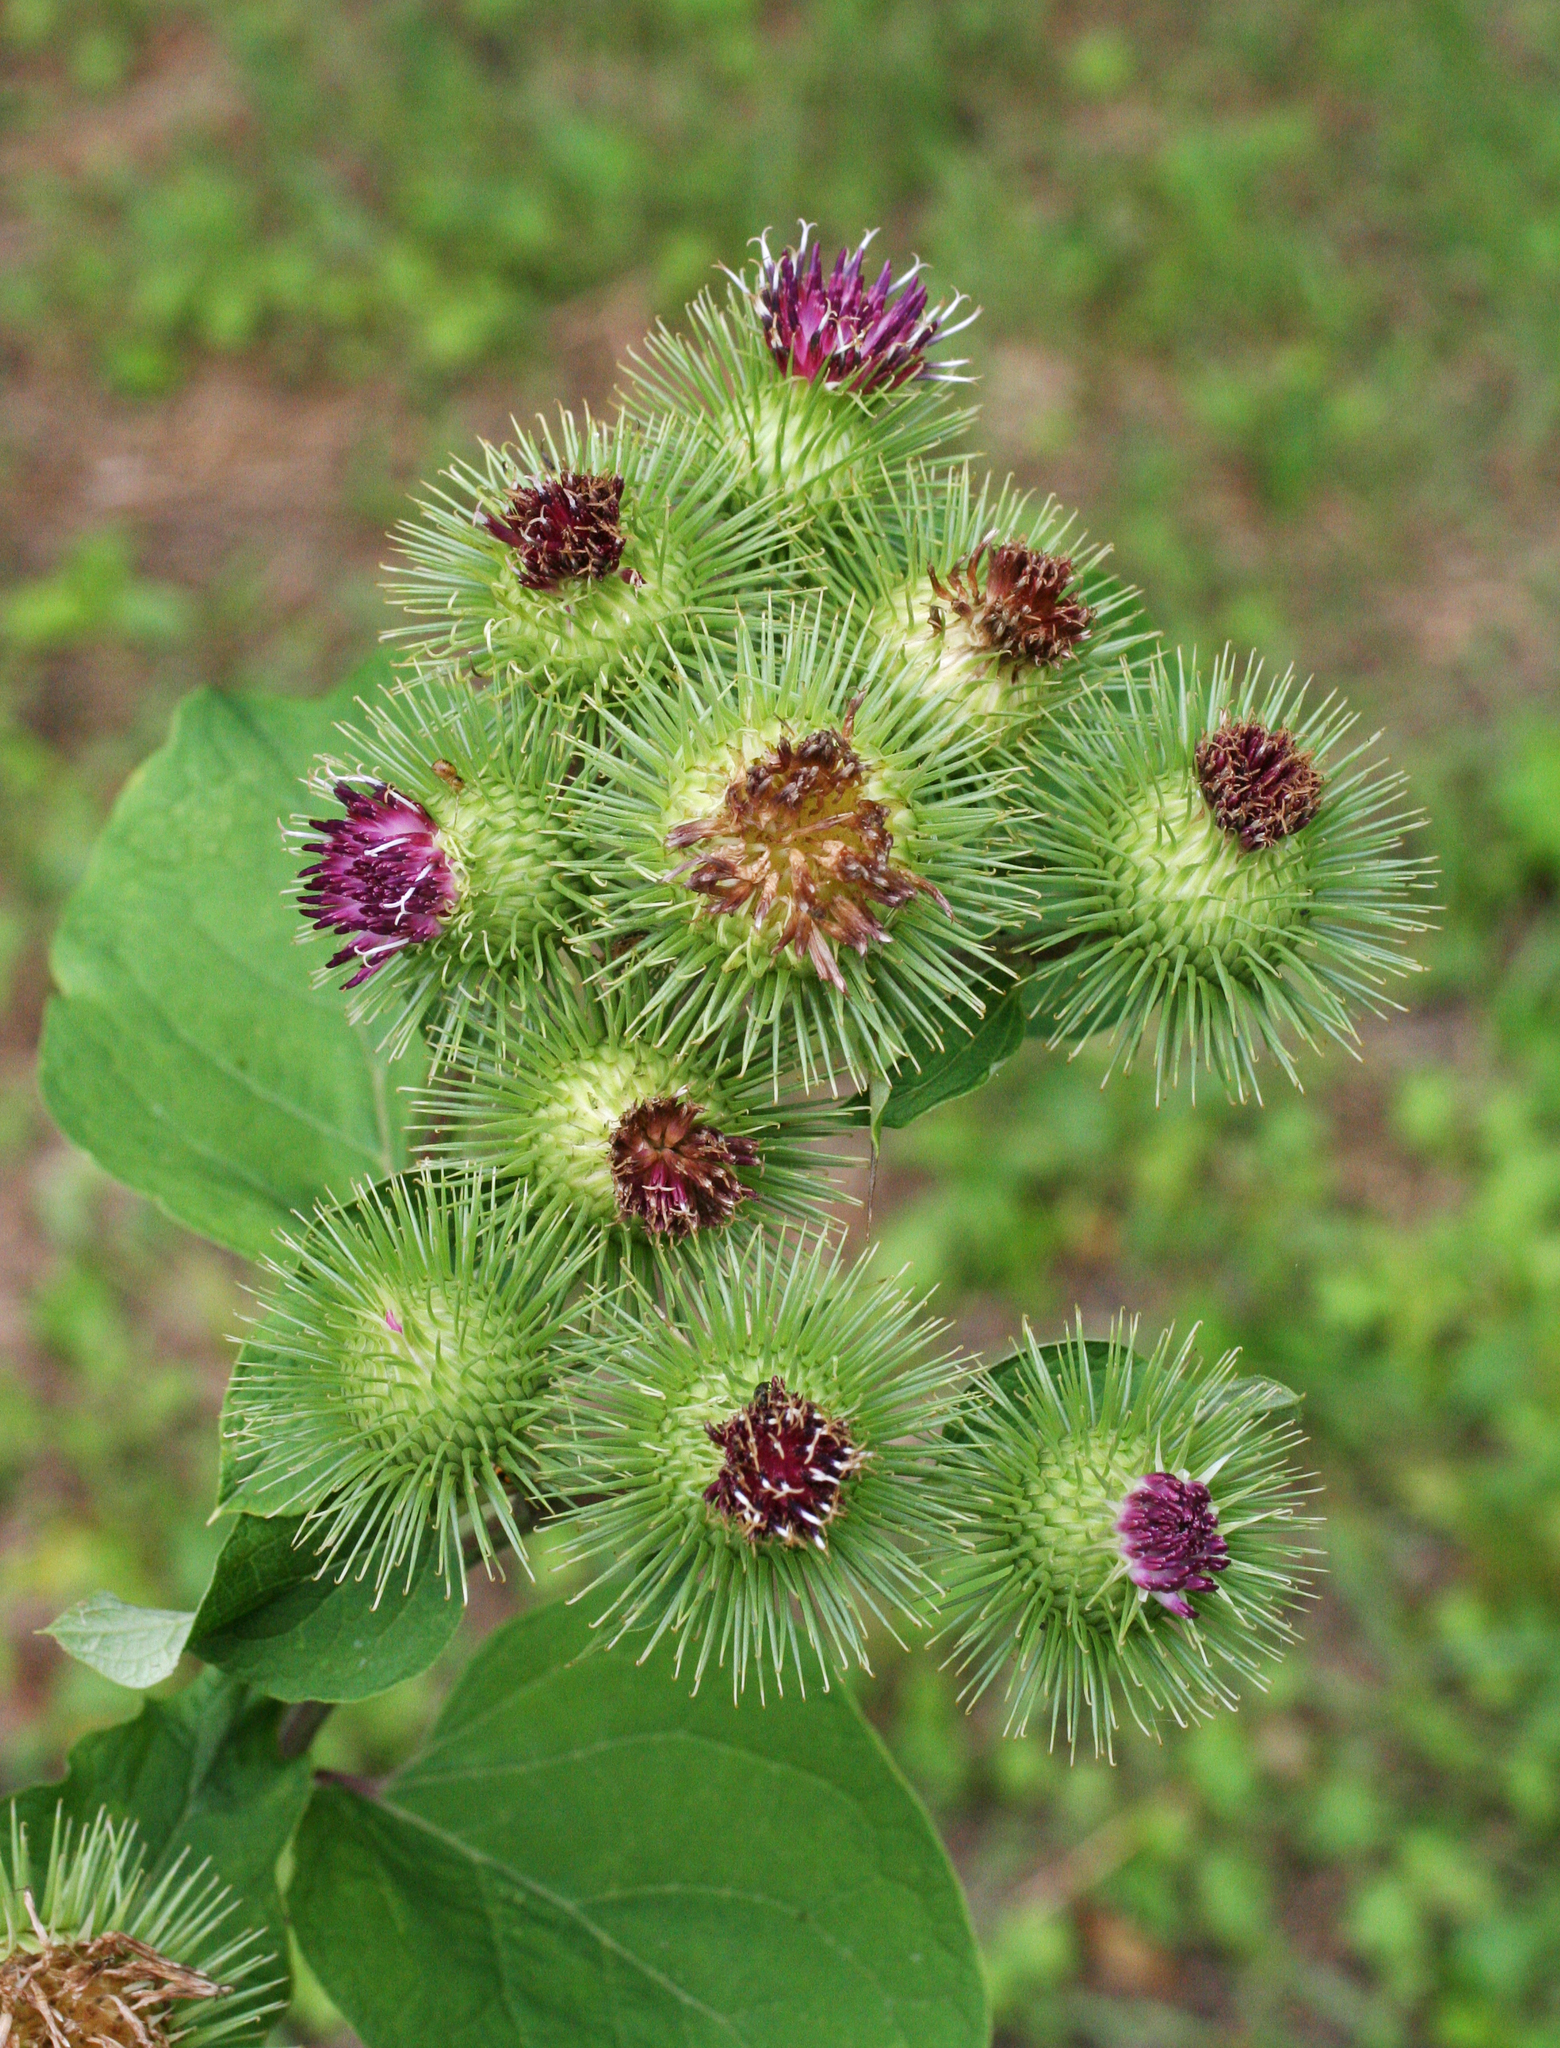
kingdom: Plantae
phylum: Tracheophyta
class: Magnoliopsida
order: Asterales
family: Asteraceae
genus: Arctium
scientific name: Arctium lappa
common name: Greater burdock
